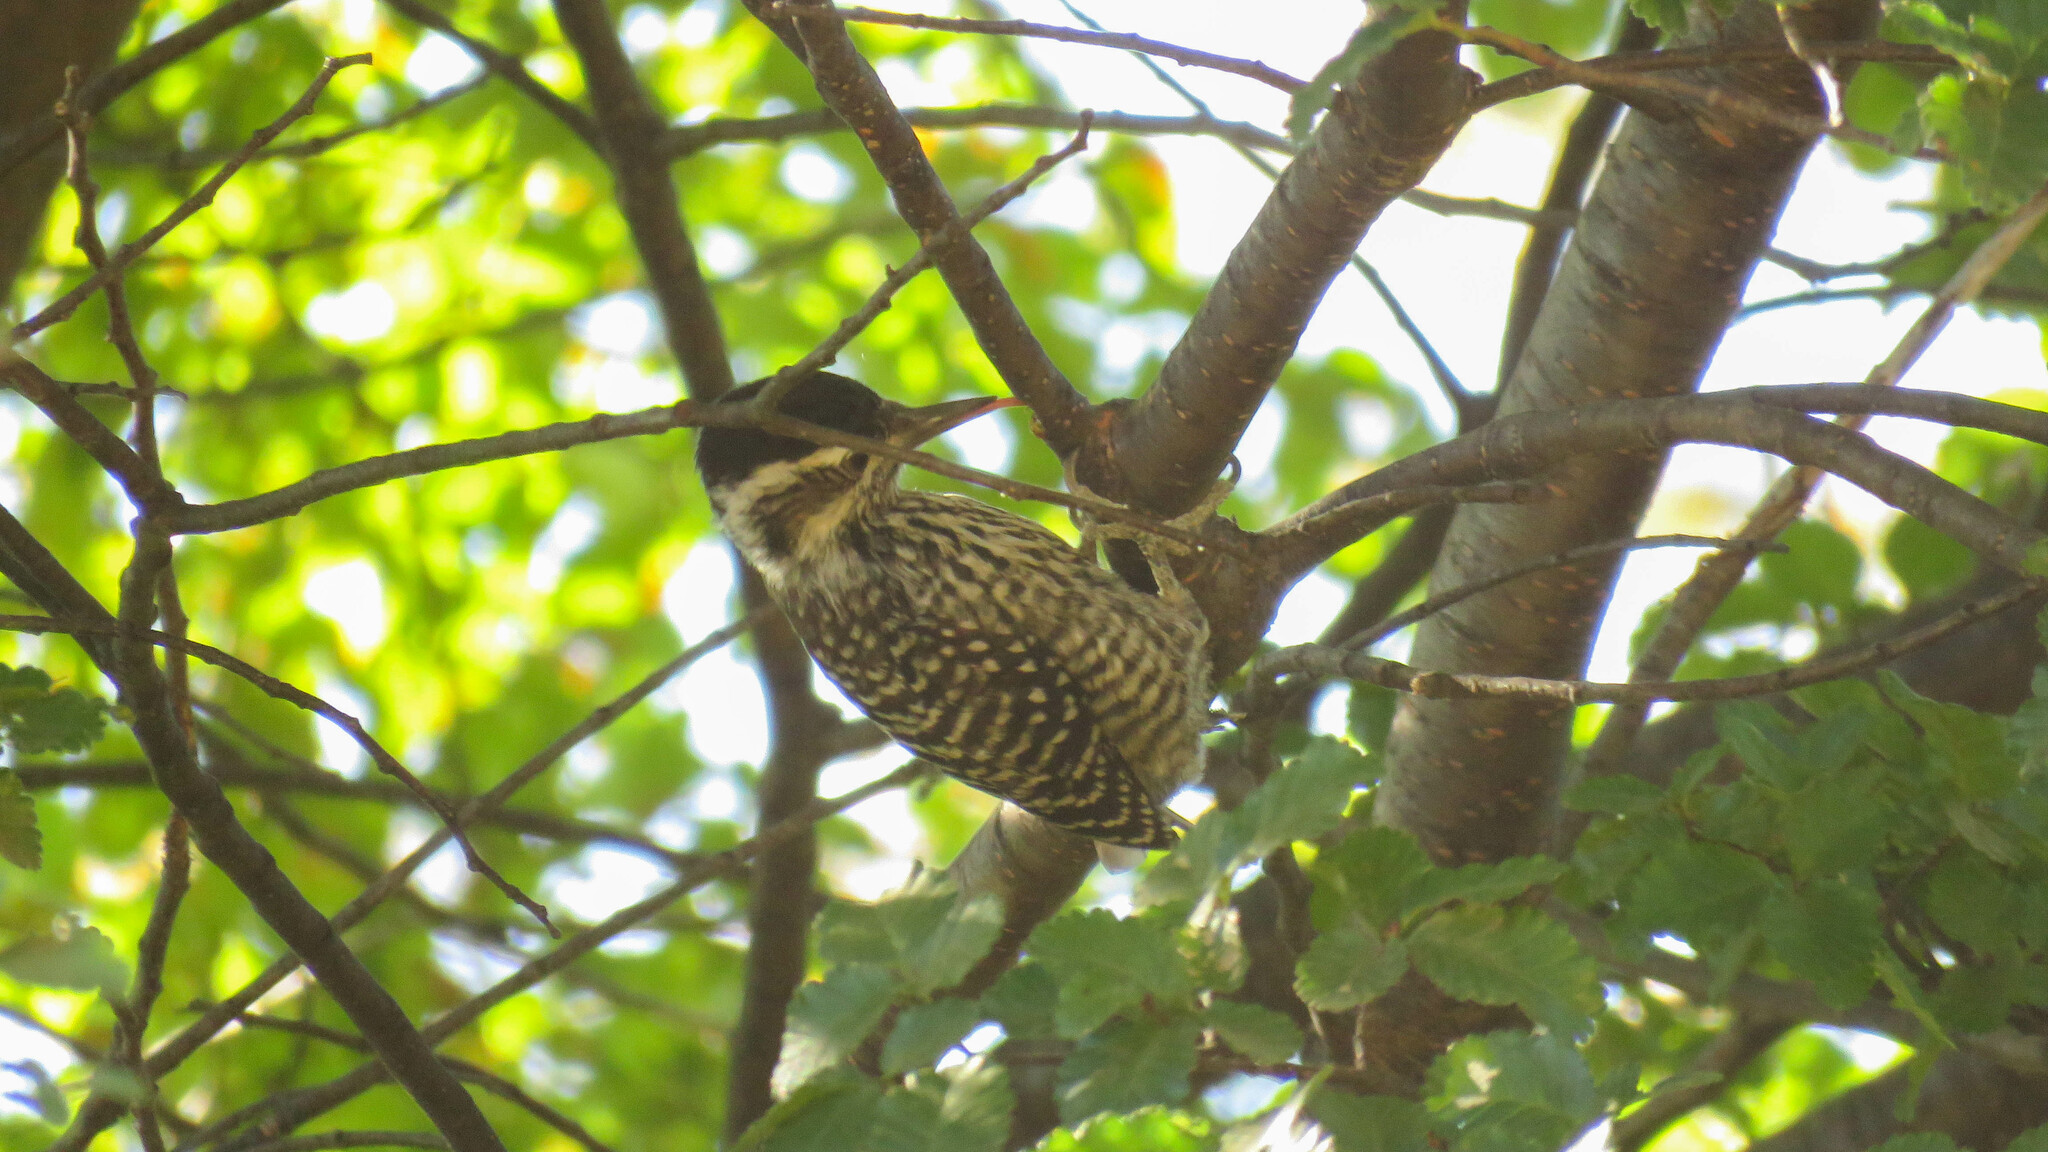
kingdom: Animalia
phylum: Chordata
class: Aves
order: Piciformes
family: Picidae
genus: Veniliornis
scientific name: Veniliornis lignarius
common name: Striped woodpecker
